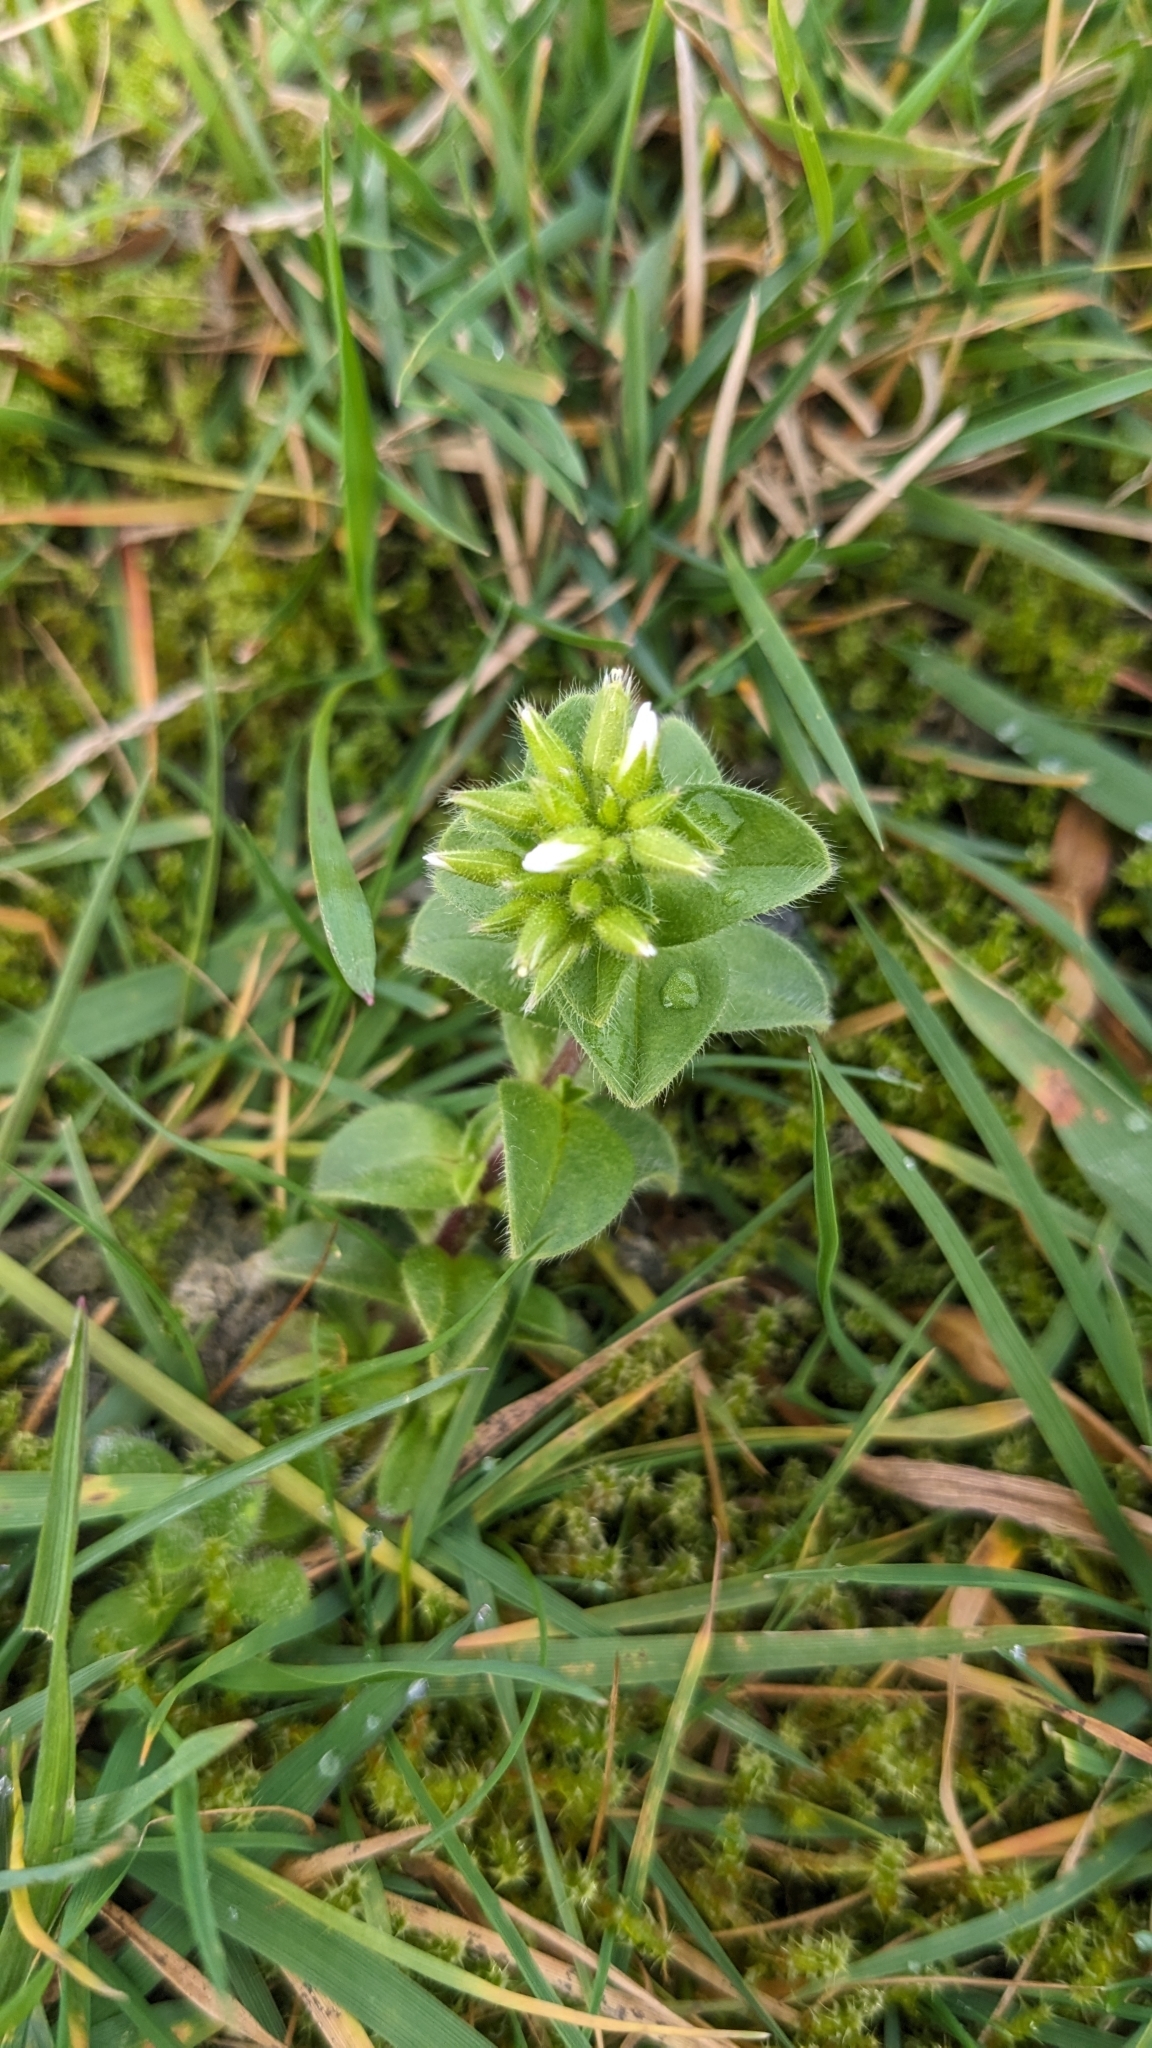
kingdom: Plantae
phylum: Tracheophyta
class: Magnoliopsida
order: Caryophyllales
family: Caryophyllaceae
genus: Cerastium
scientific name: Cerastium glomeratum
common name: Sticky chickweed
